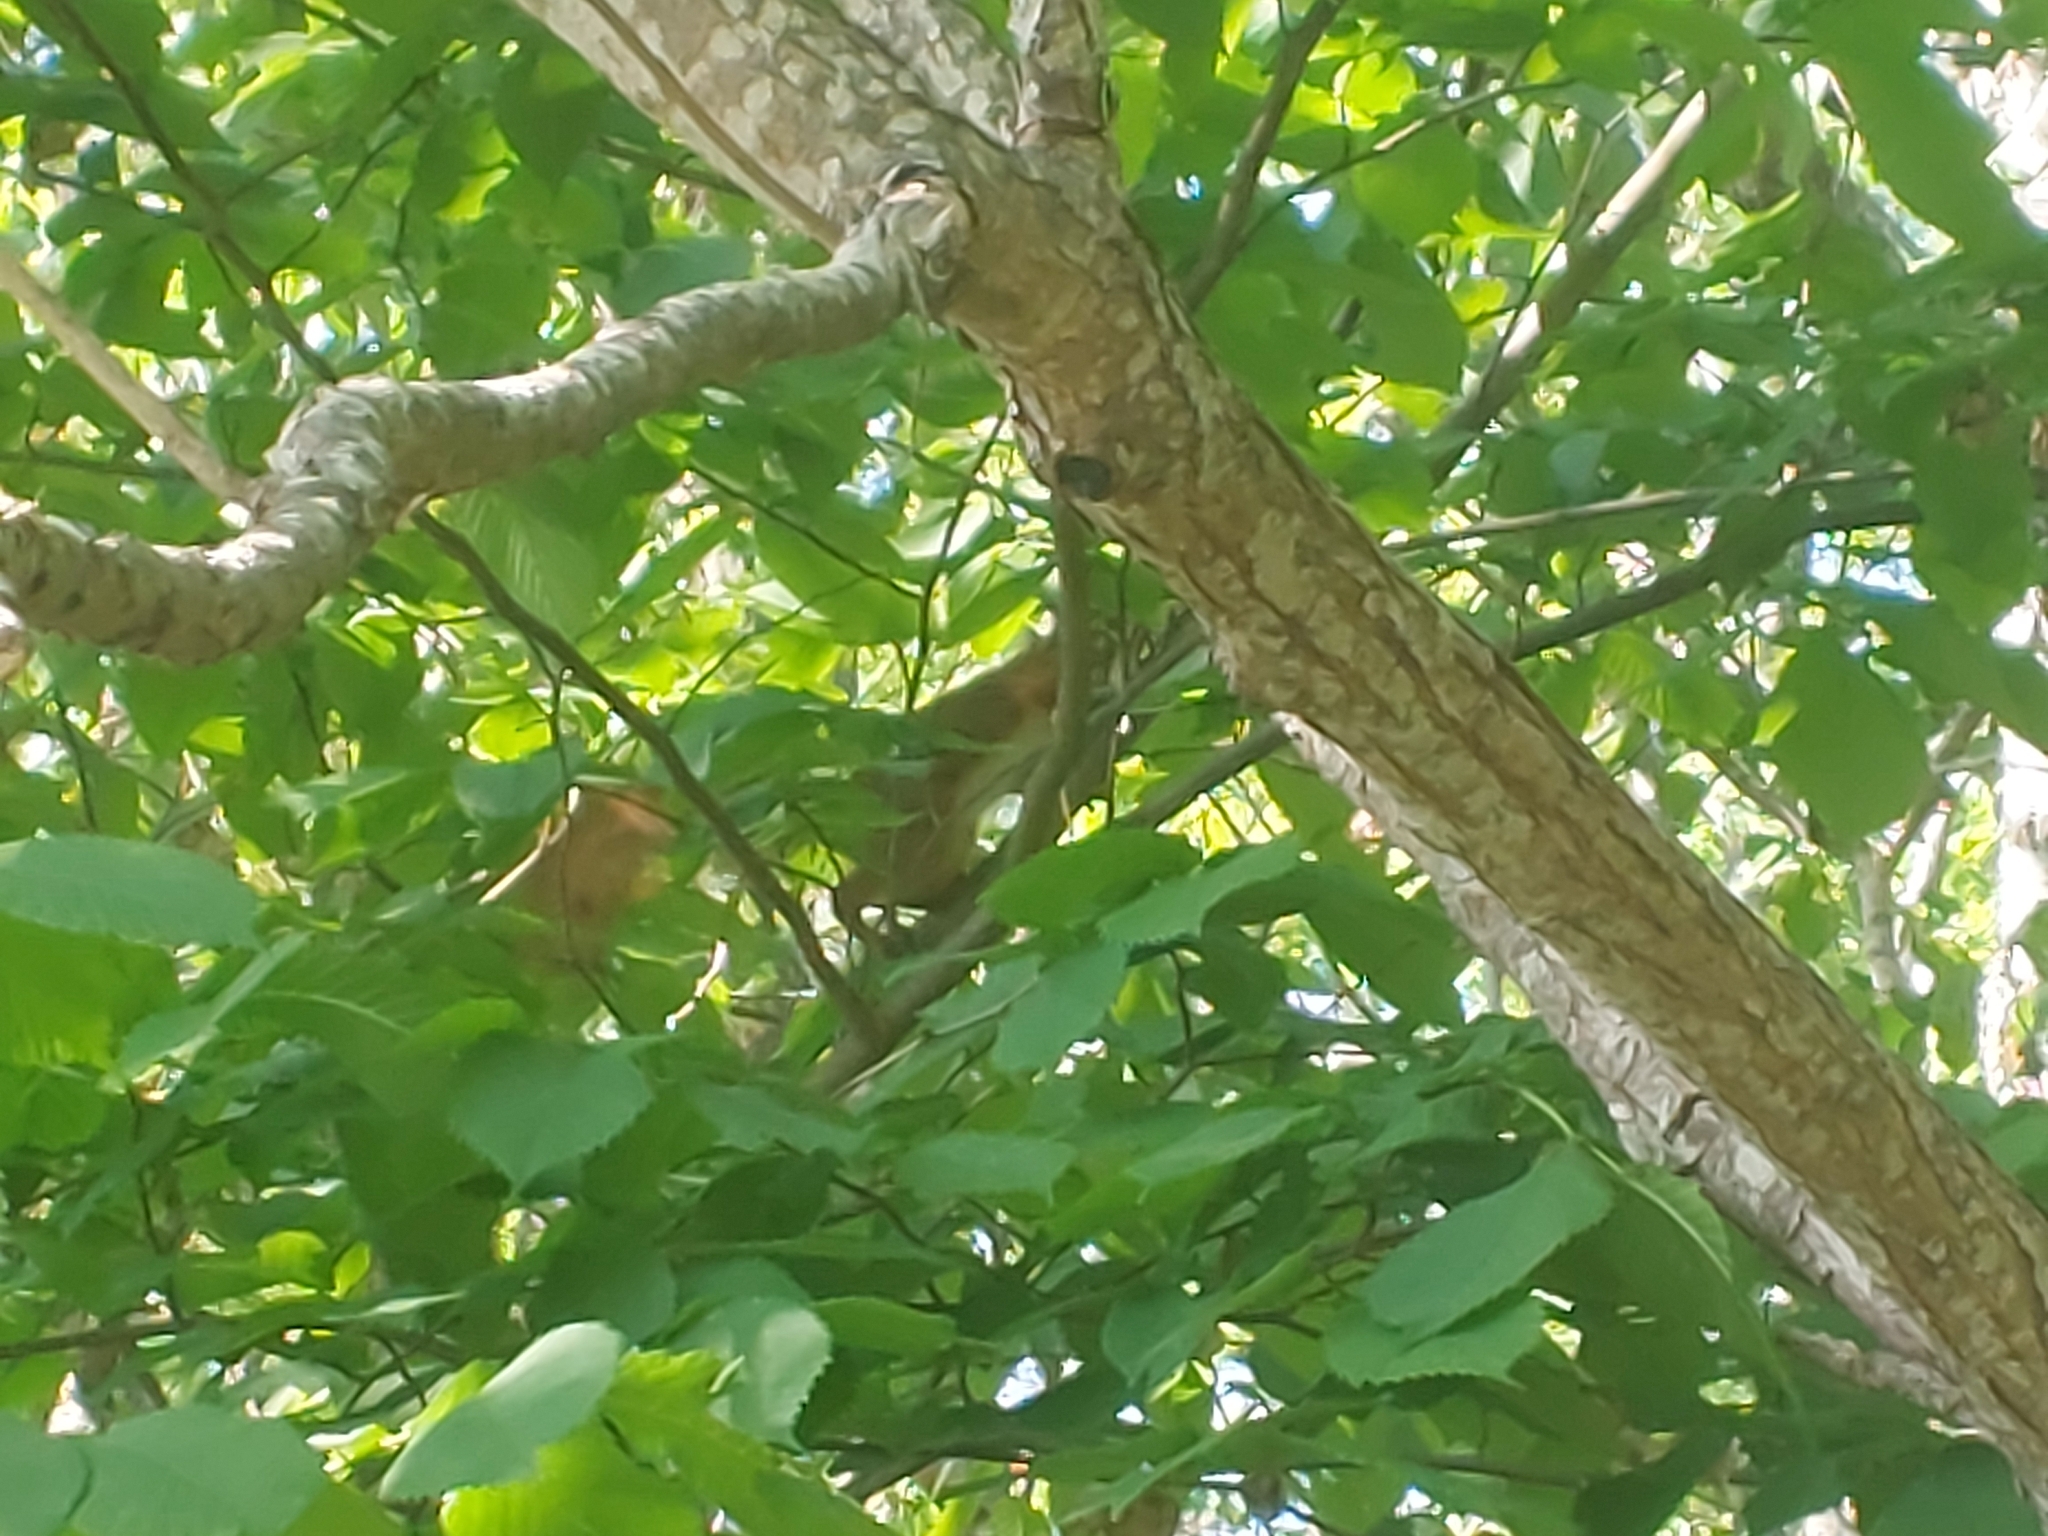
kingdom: Animalia
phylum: Chordata
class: Mammalia
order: Rodentia
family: Sciuridae
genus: Sciurus
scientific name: Sciurus vulgaris
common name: Eurasian red squirrel
